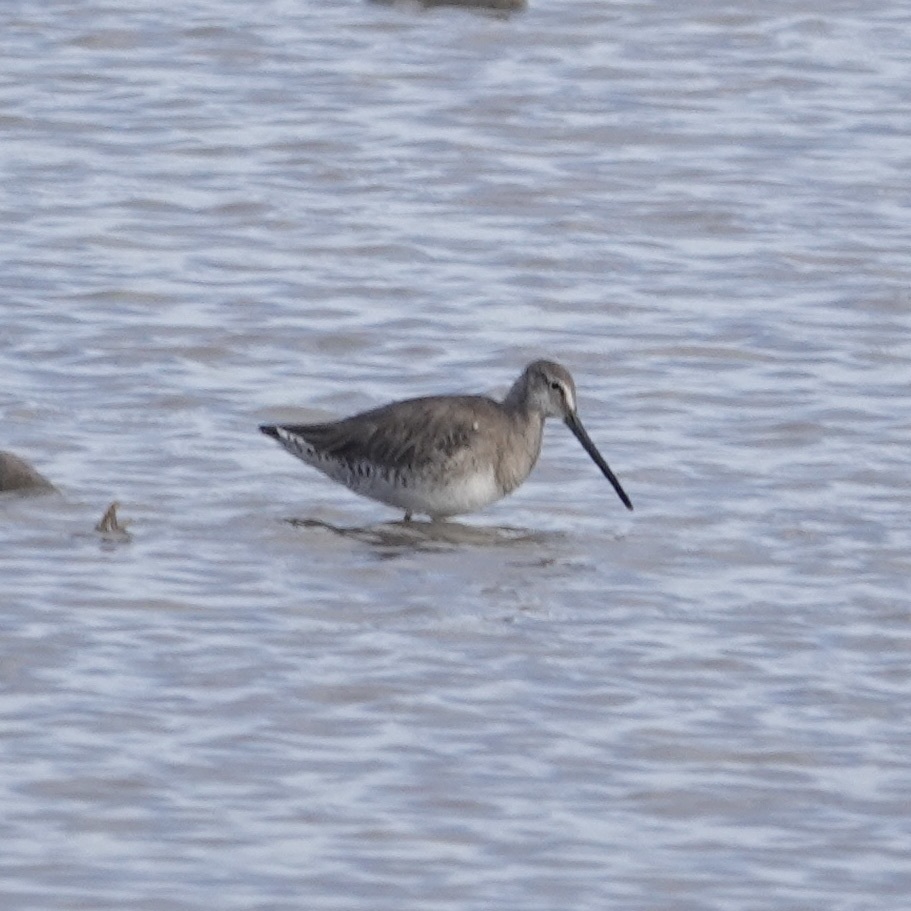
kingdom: Animalia
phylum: Chordata
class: Aves
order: Charadriiformes
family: Scolopacidae
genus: Limnodromus
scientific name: Limnodromus scolopaceus
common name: Long-billed dowitcher
